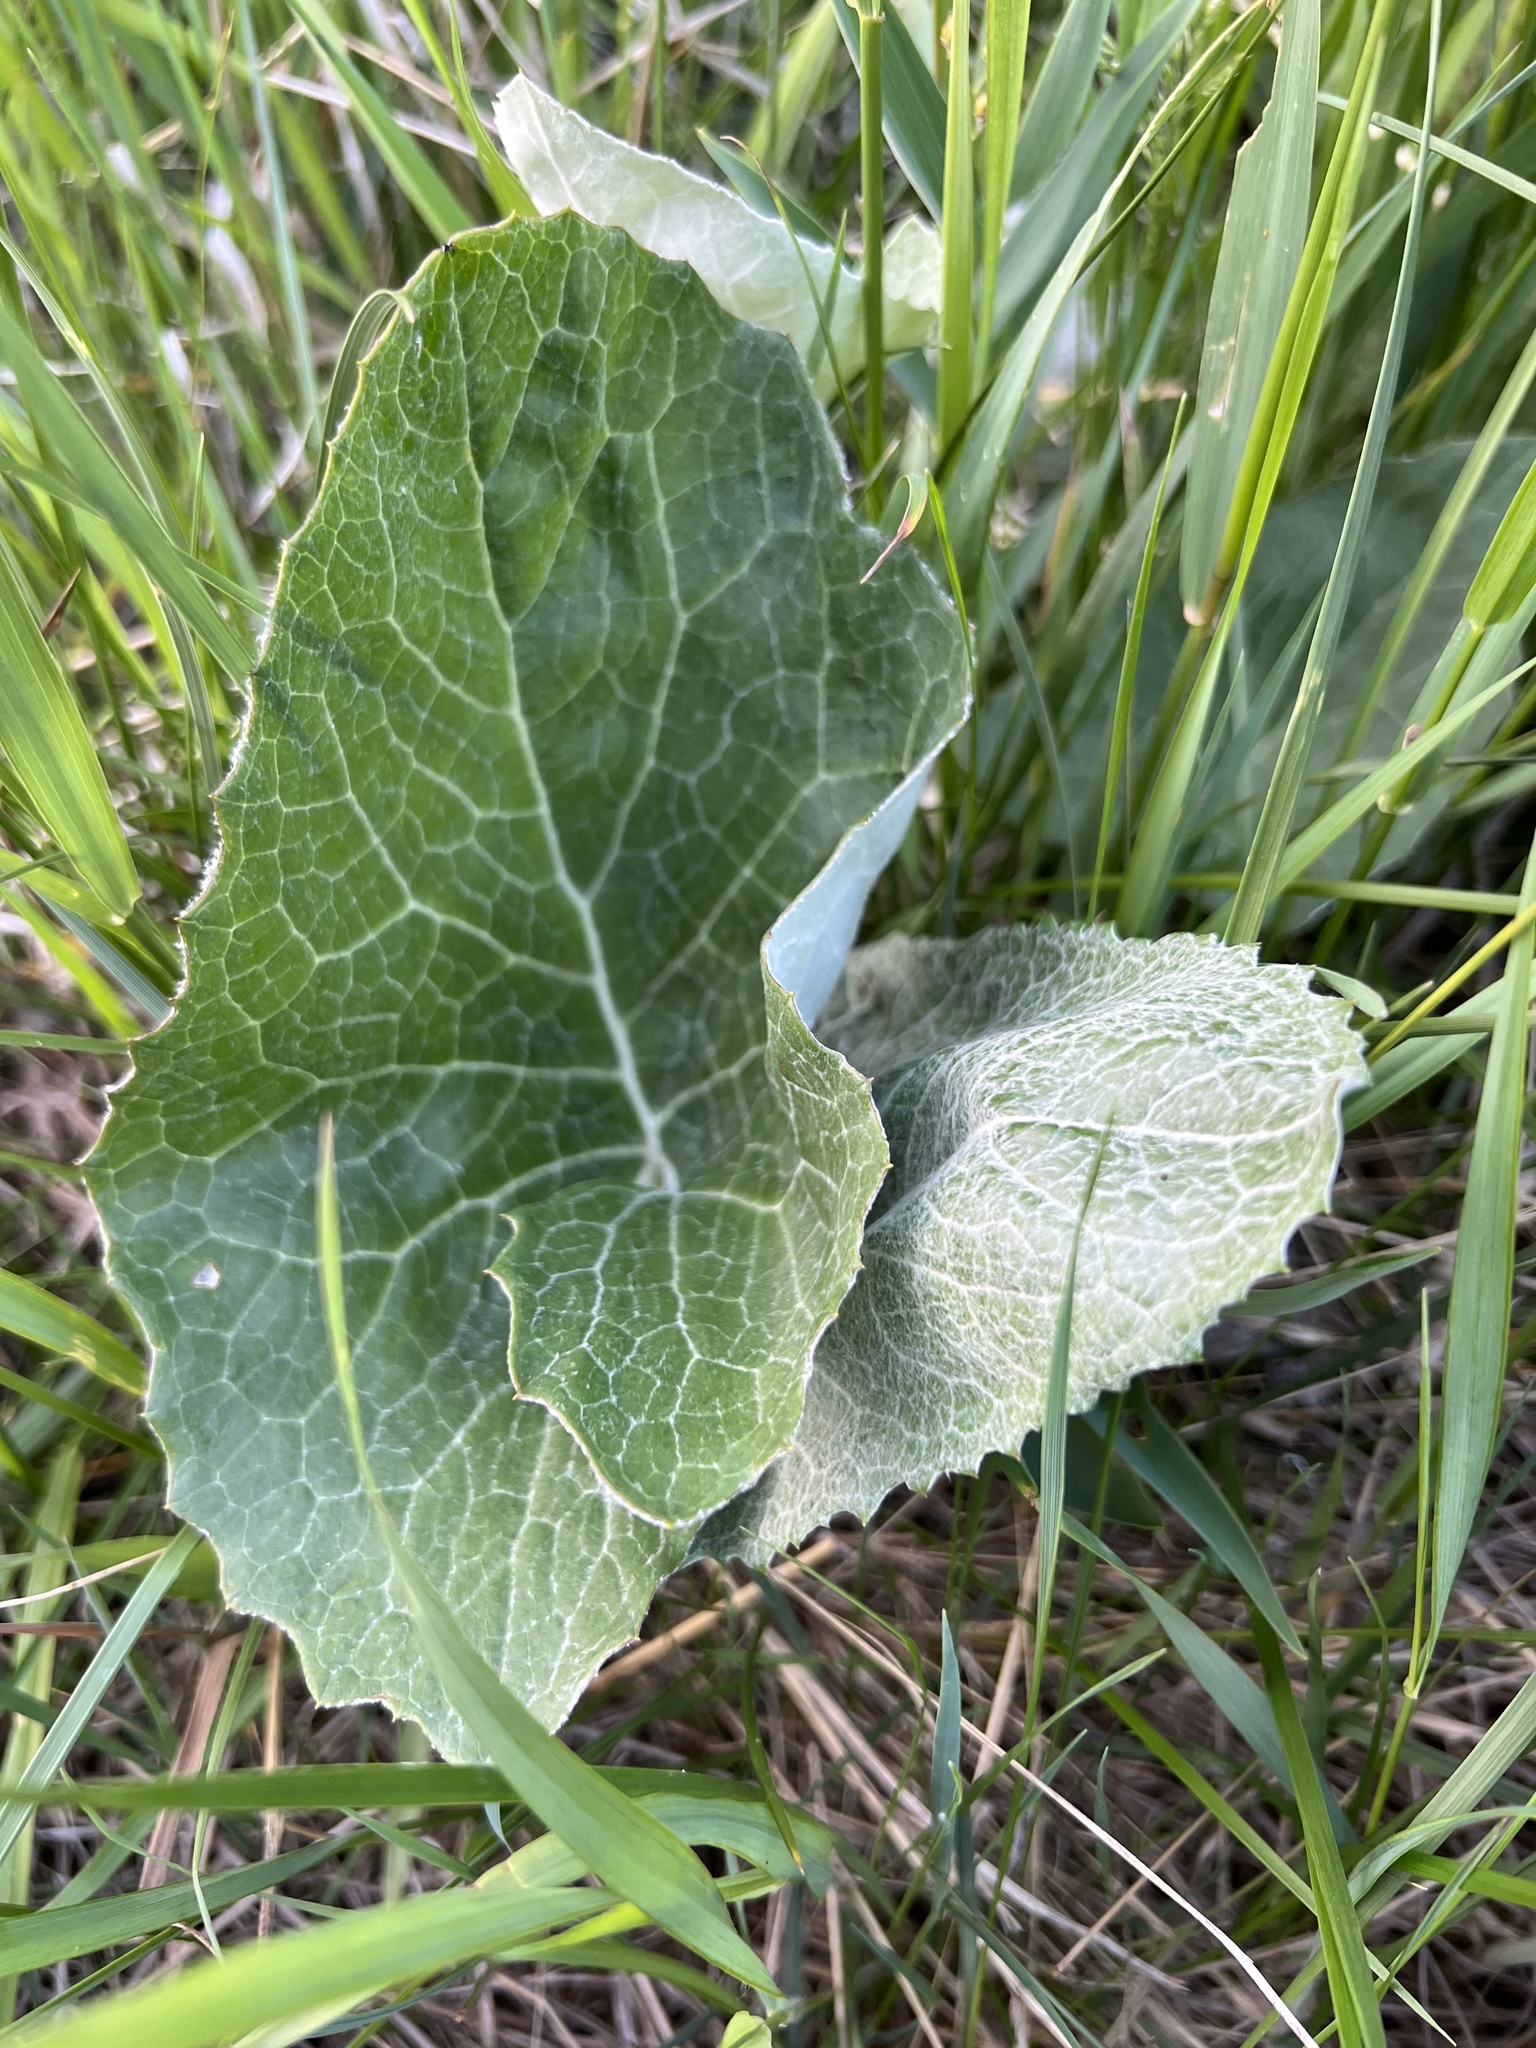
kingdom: Plantae
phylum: Tracheophyta
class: Magnoliopsida
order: Asterales
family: Asteraceae
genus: Petasites
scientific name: Petasites frigidus
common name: Arctic butterbur
